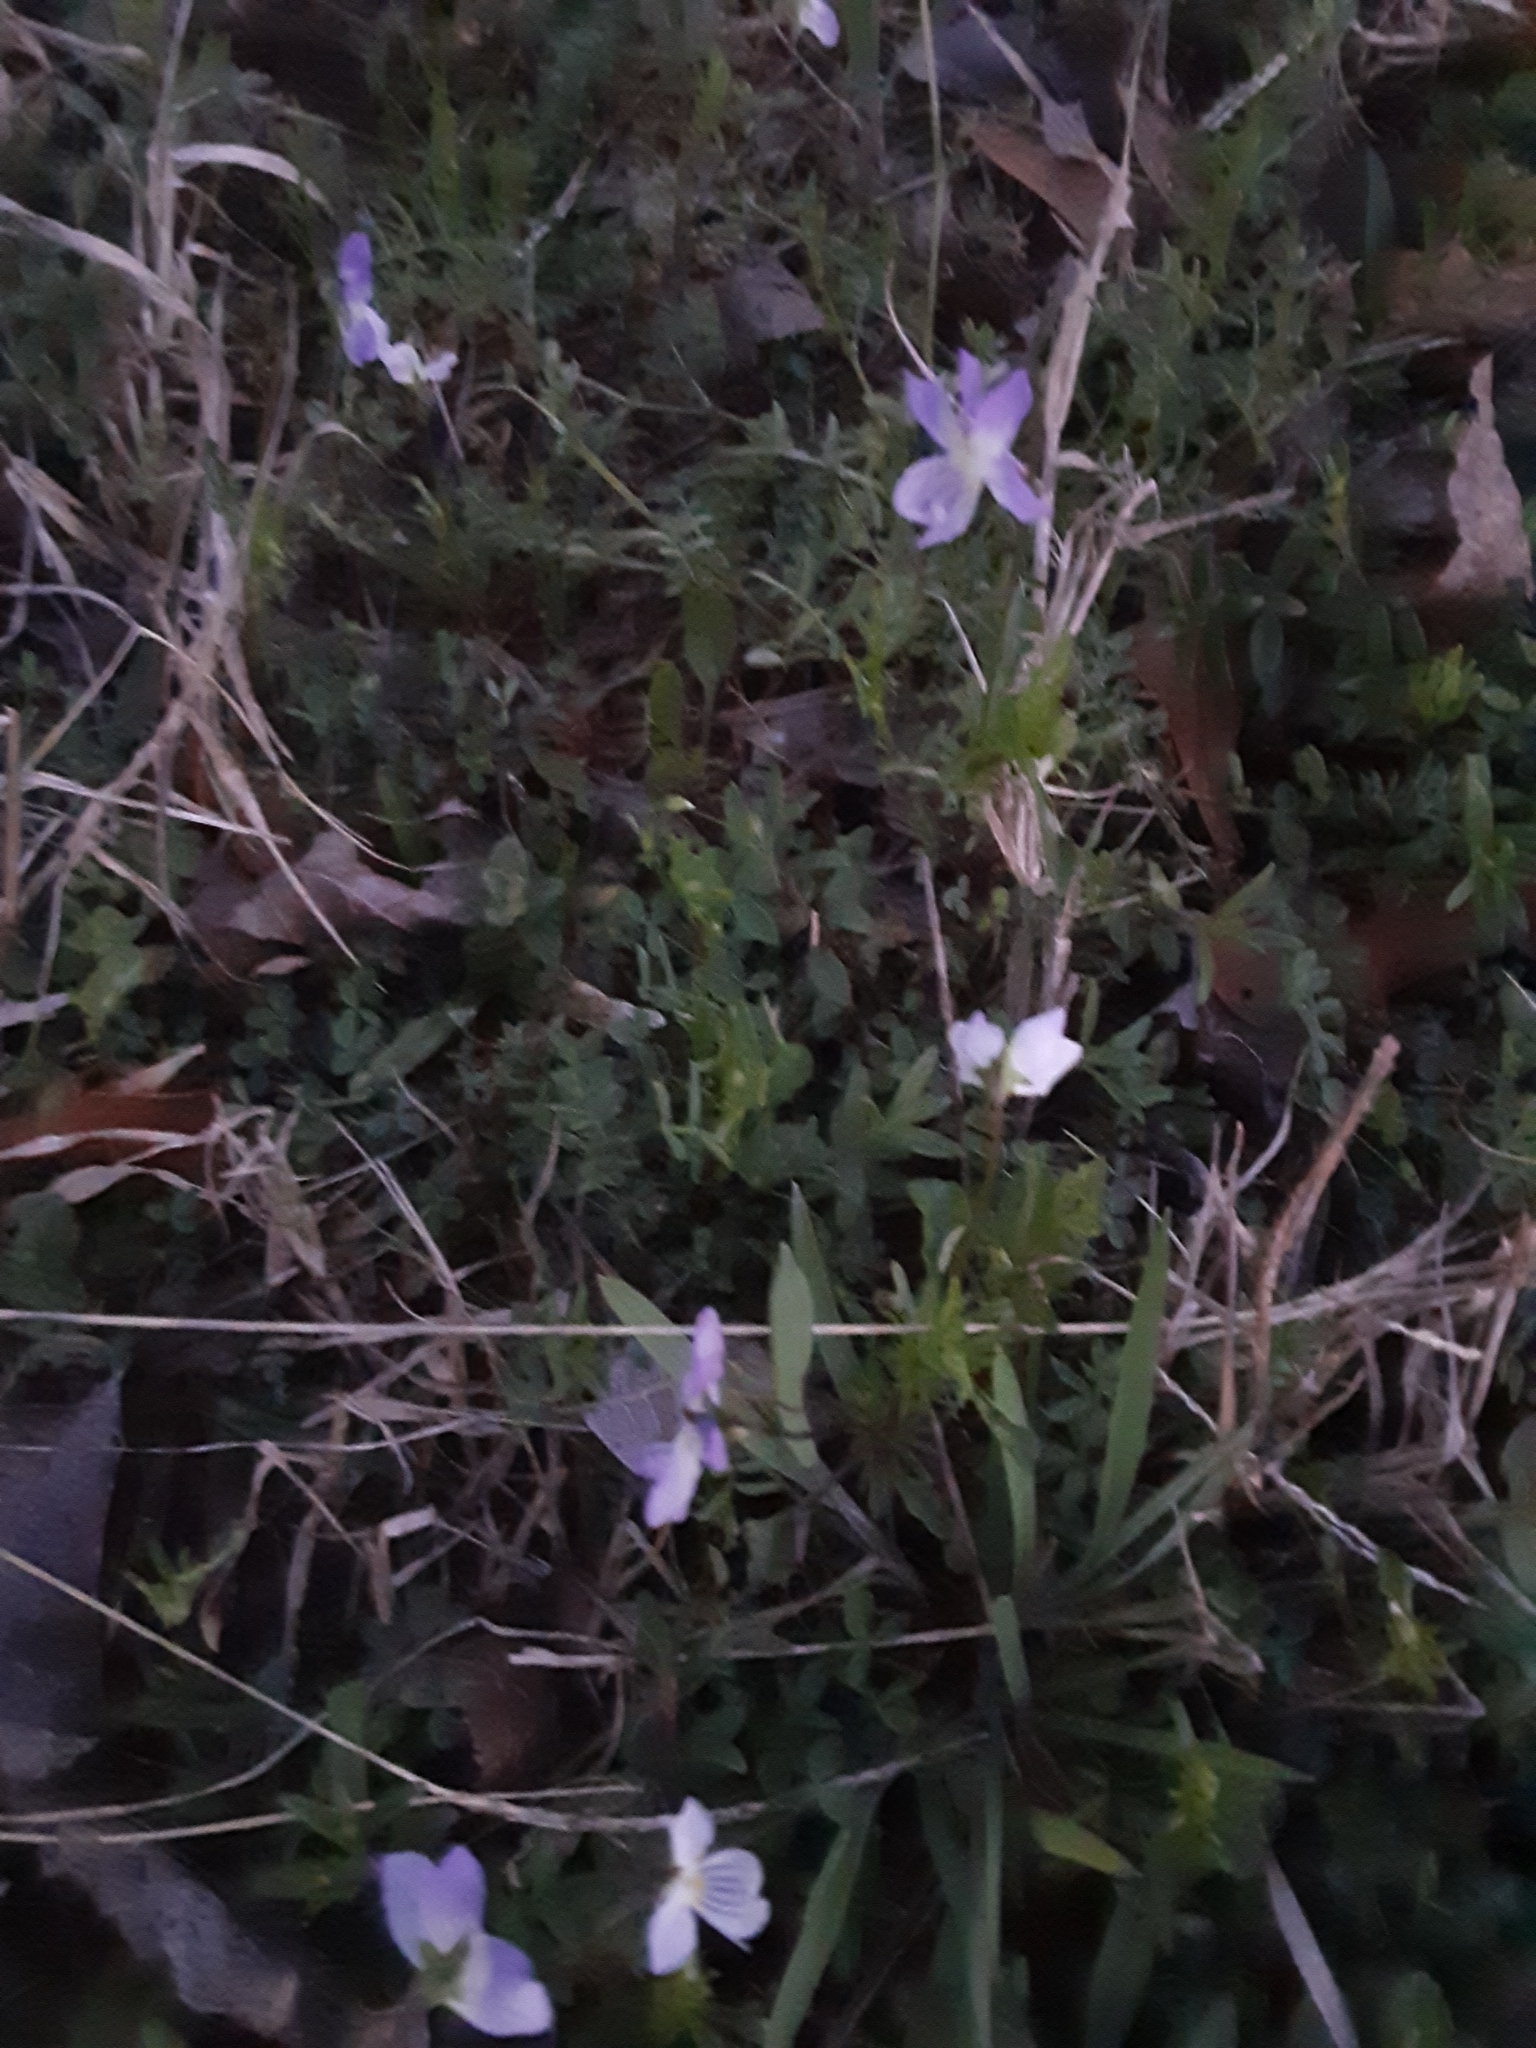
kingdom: Plantae
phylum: Tracheophyta
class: Magnoliopsida
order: Malpighiales
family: Violaceae
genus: Viola
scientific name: Viola rafinesquei
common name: American field pansy
